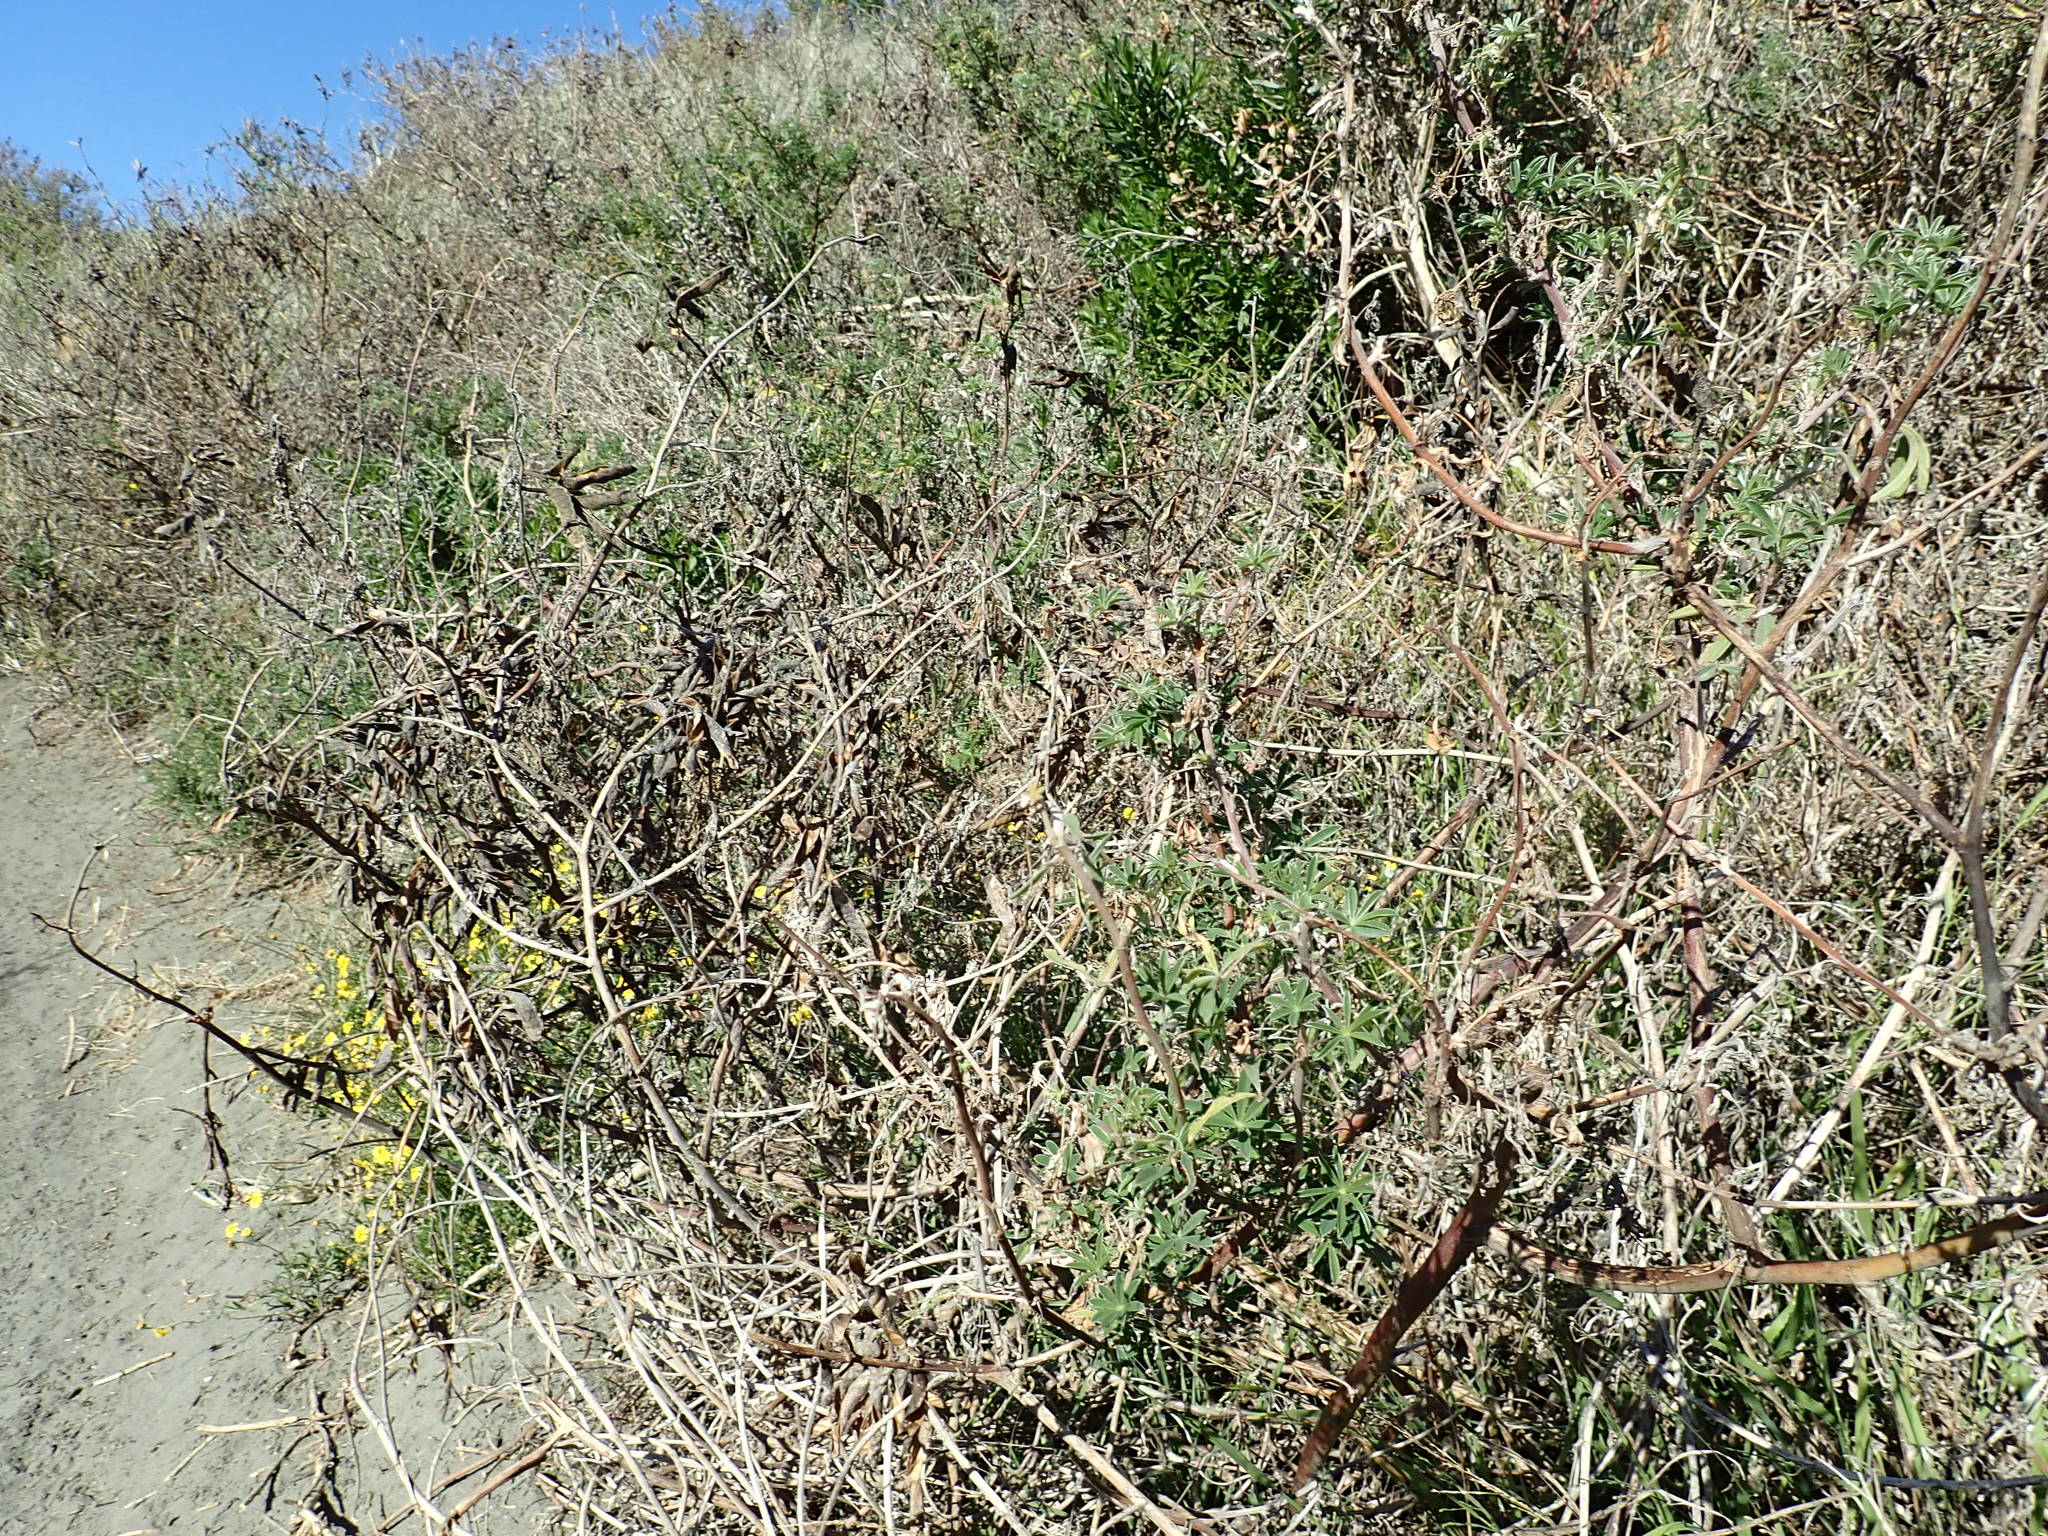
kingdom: Plantae
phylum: Tracheophyta
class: Magnoliopsida
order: Fabales
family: Fabaceae
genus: Lupinus
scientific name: Lupinus arboreus
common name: Yellow bush lupine
